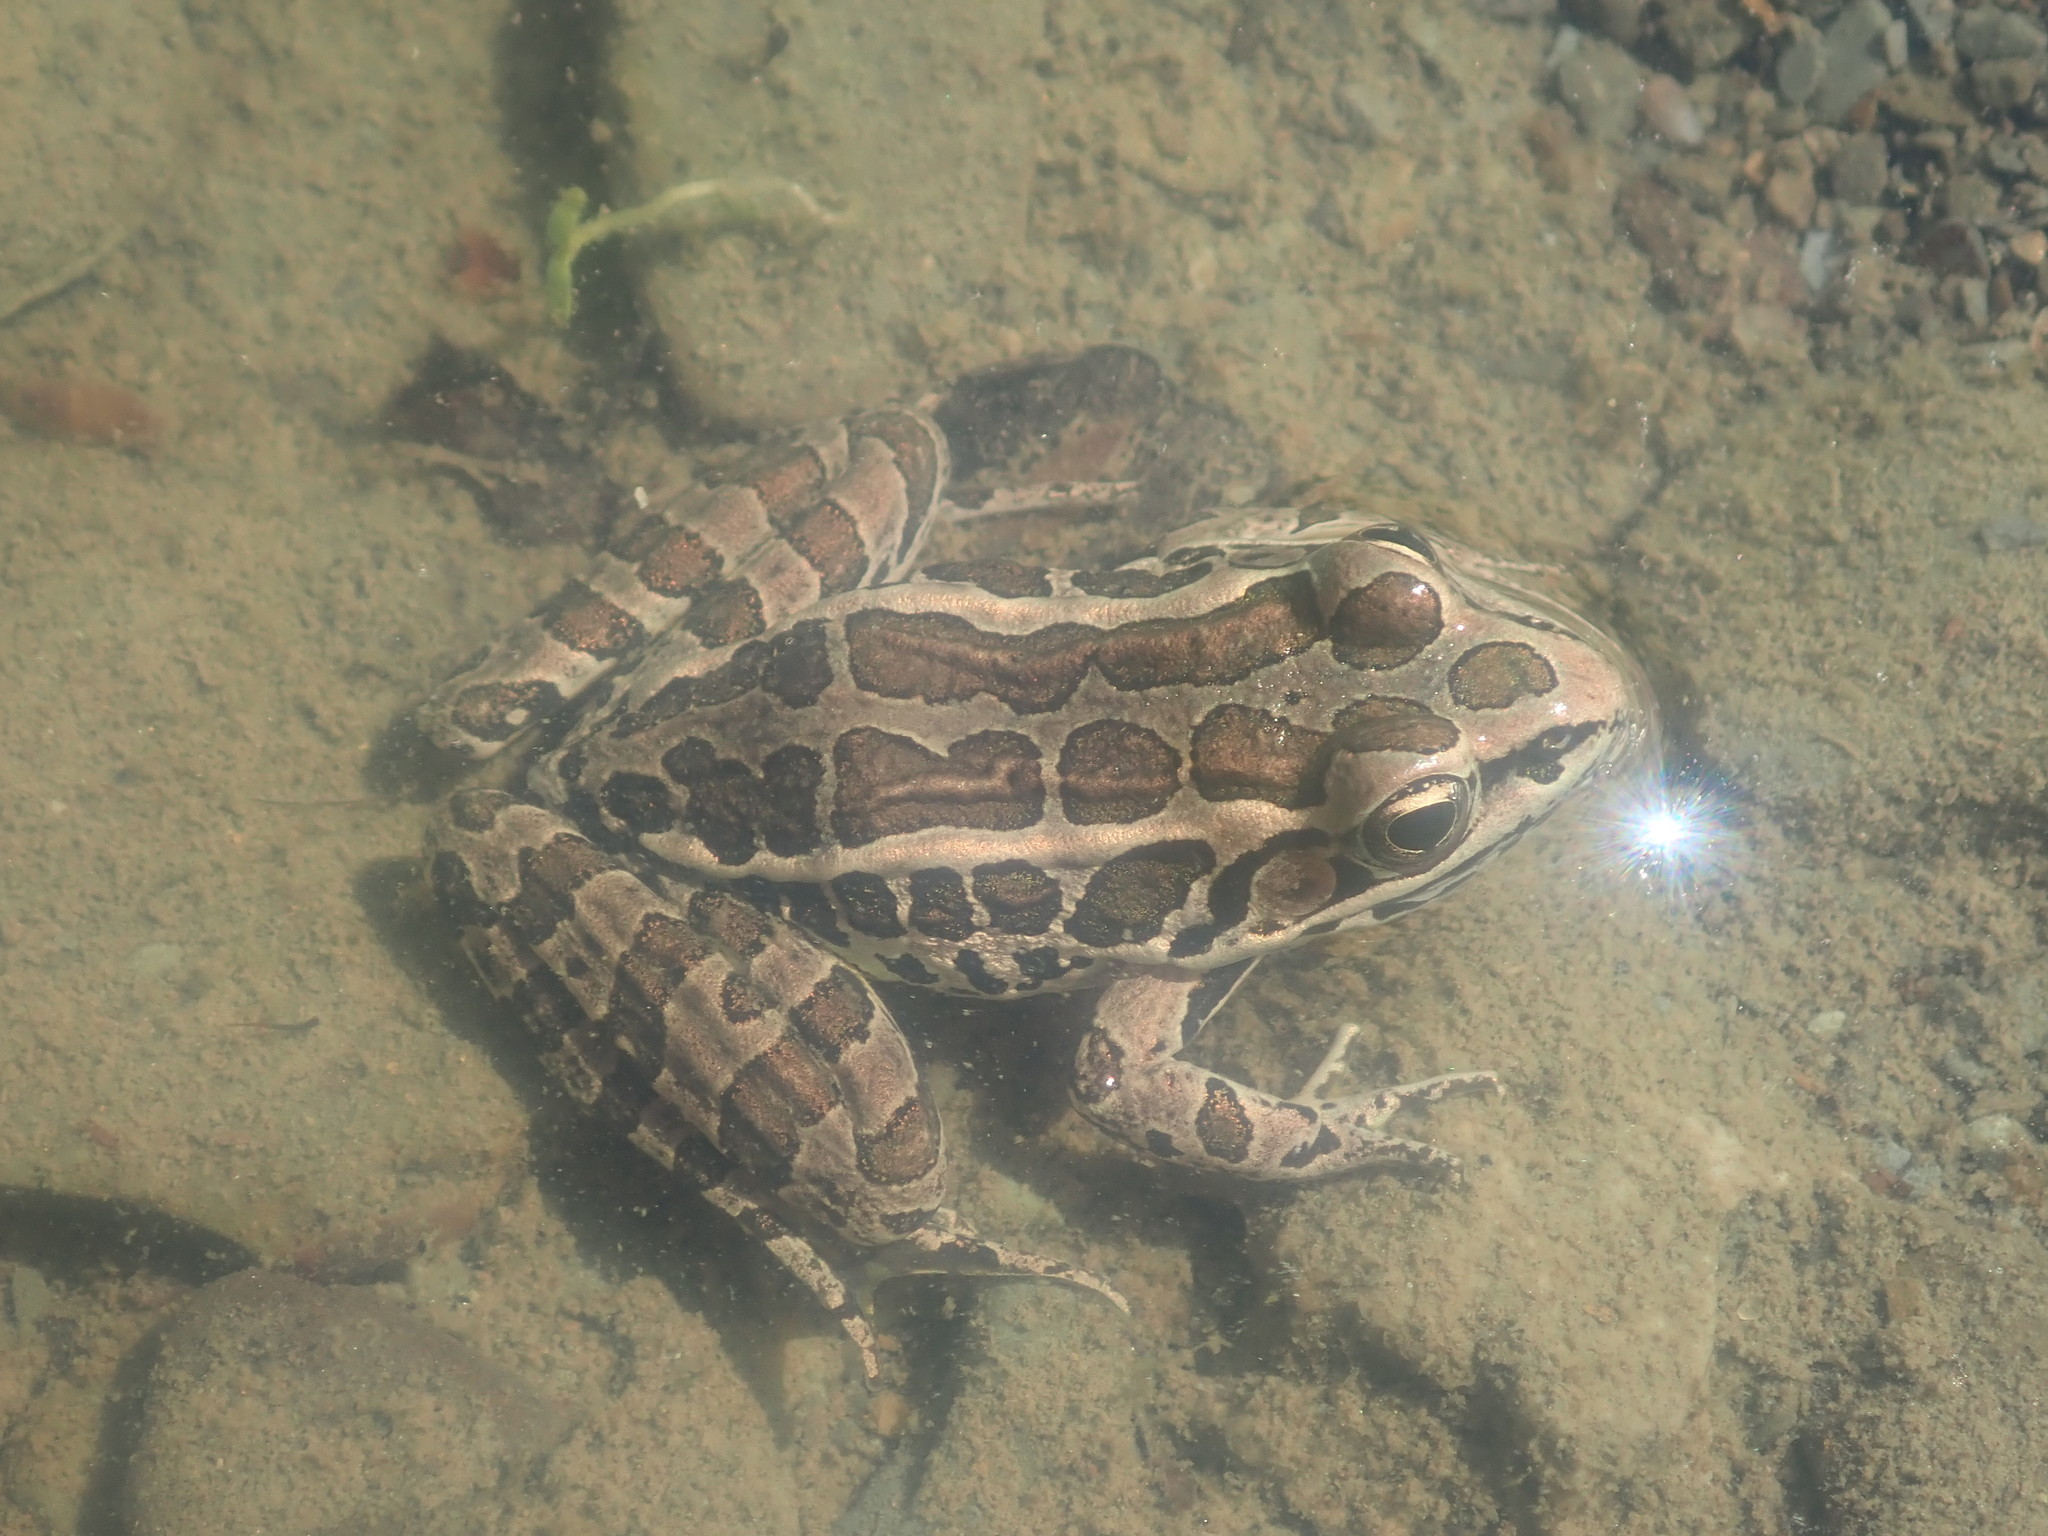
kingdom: Animalia
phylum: Chordata
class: Amphibia
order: Anura
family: Ranidae
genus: Lithobates
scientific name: Lithobates palustris
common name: Pickerel frog
